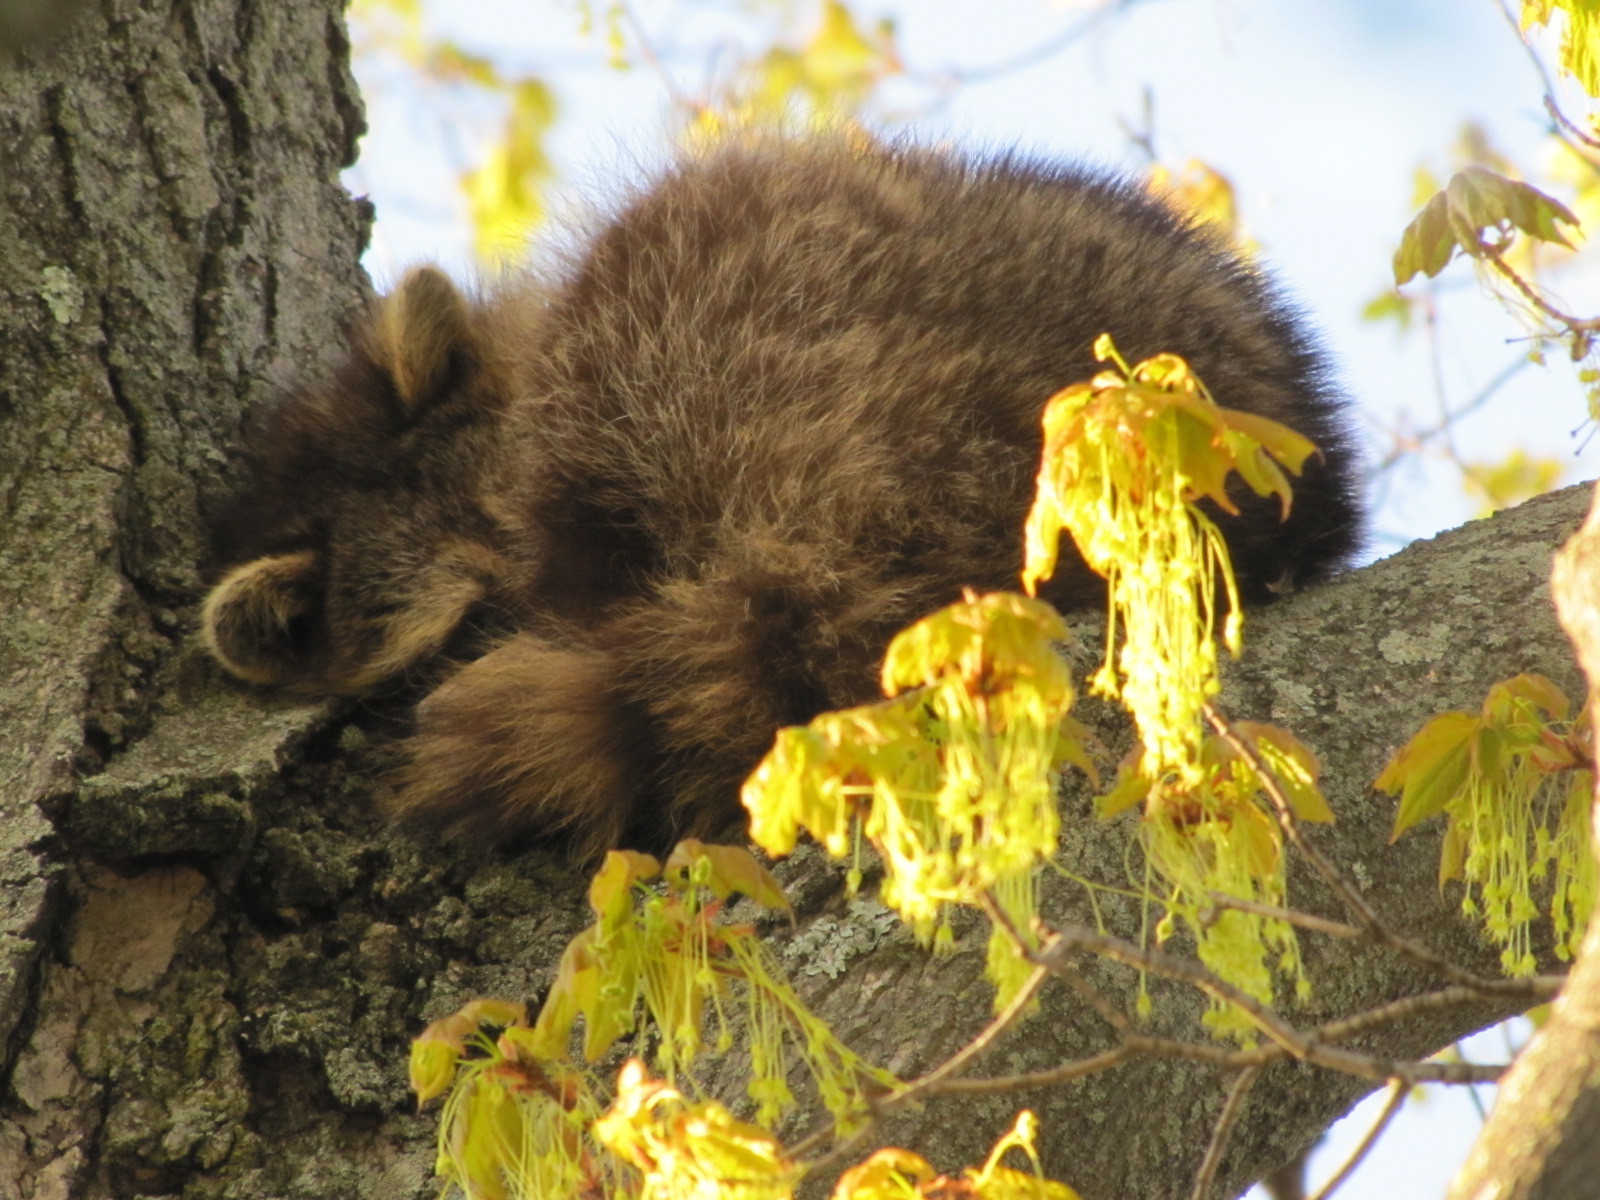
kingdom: Animalia
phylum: Chordata
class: Mammalia
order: Carnivora
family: Procyonidae
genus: Procyon
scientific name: Procyon lotor
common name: Raccoon
